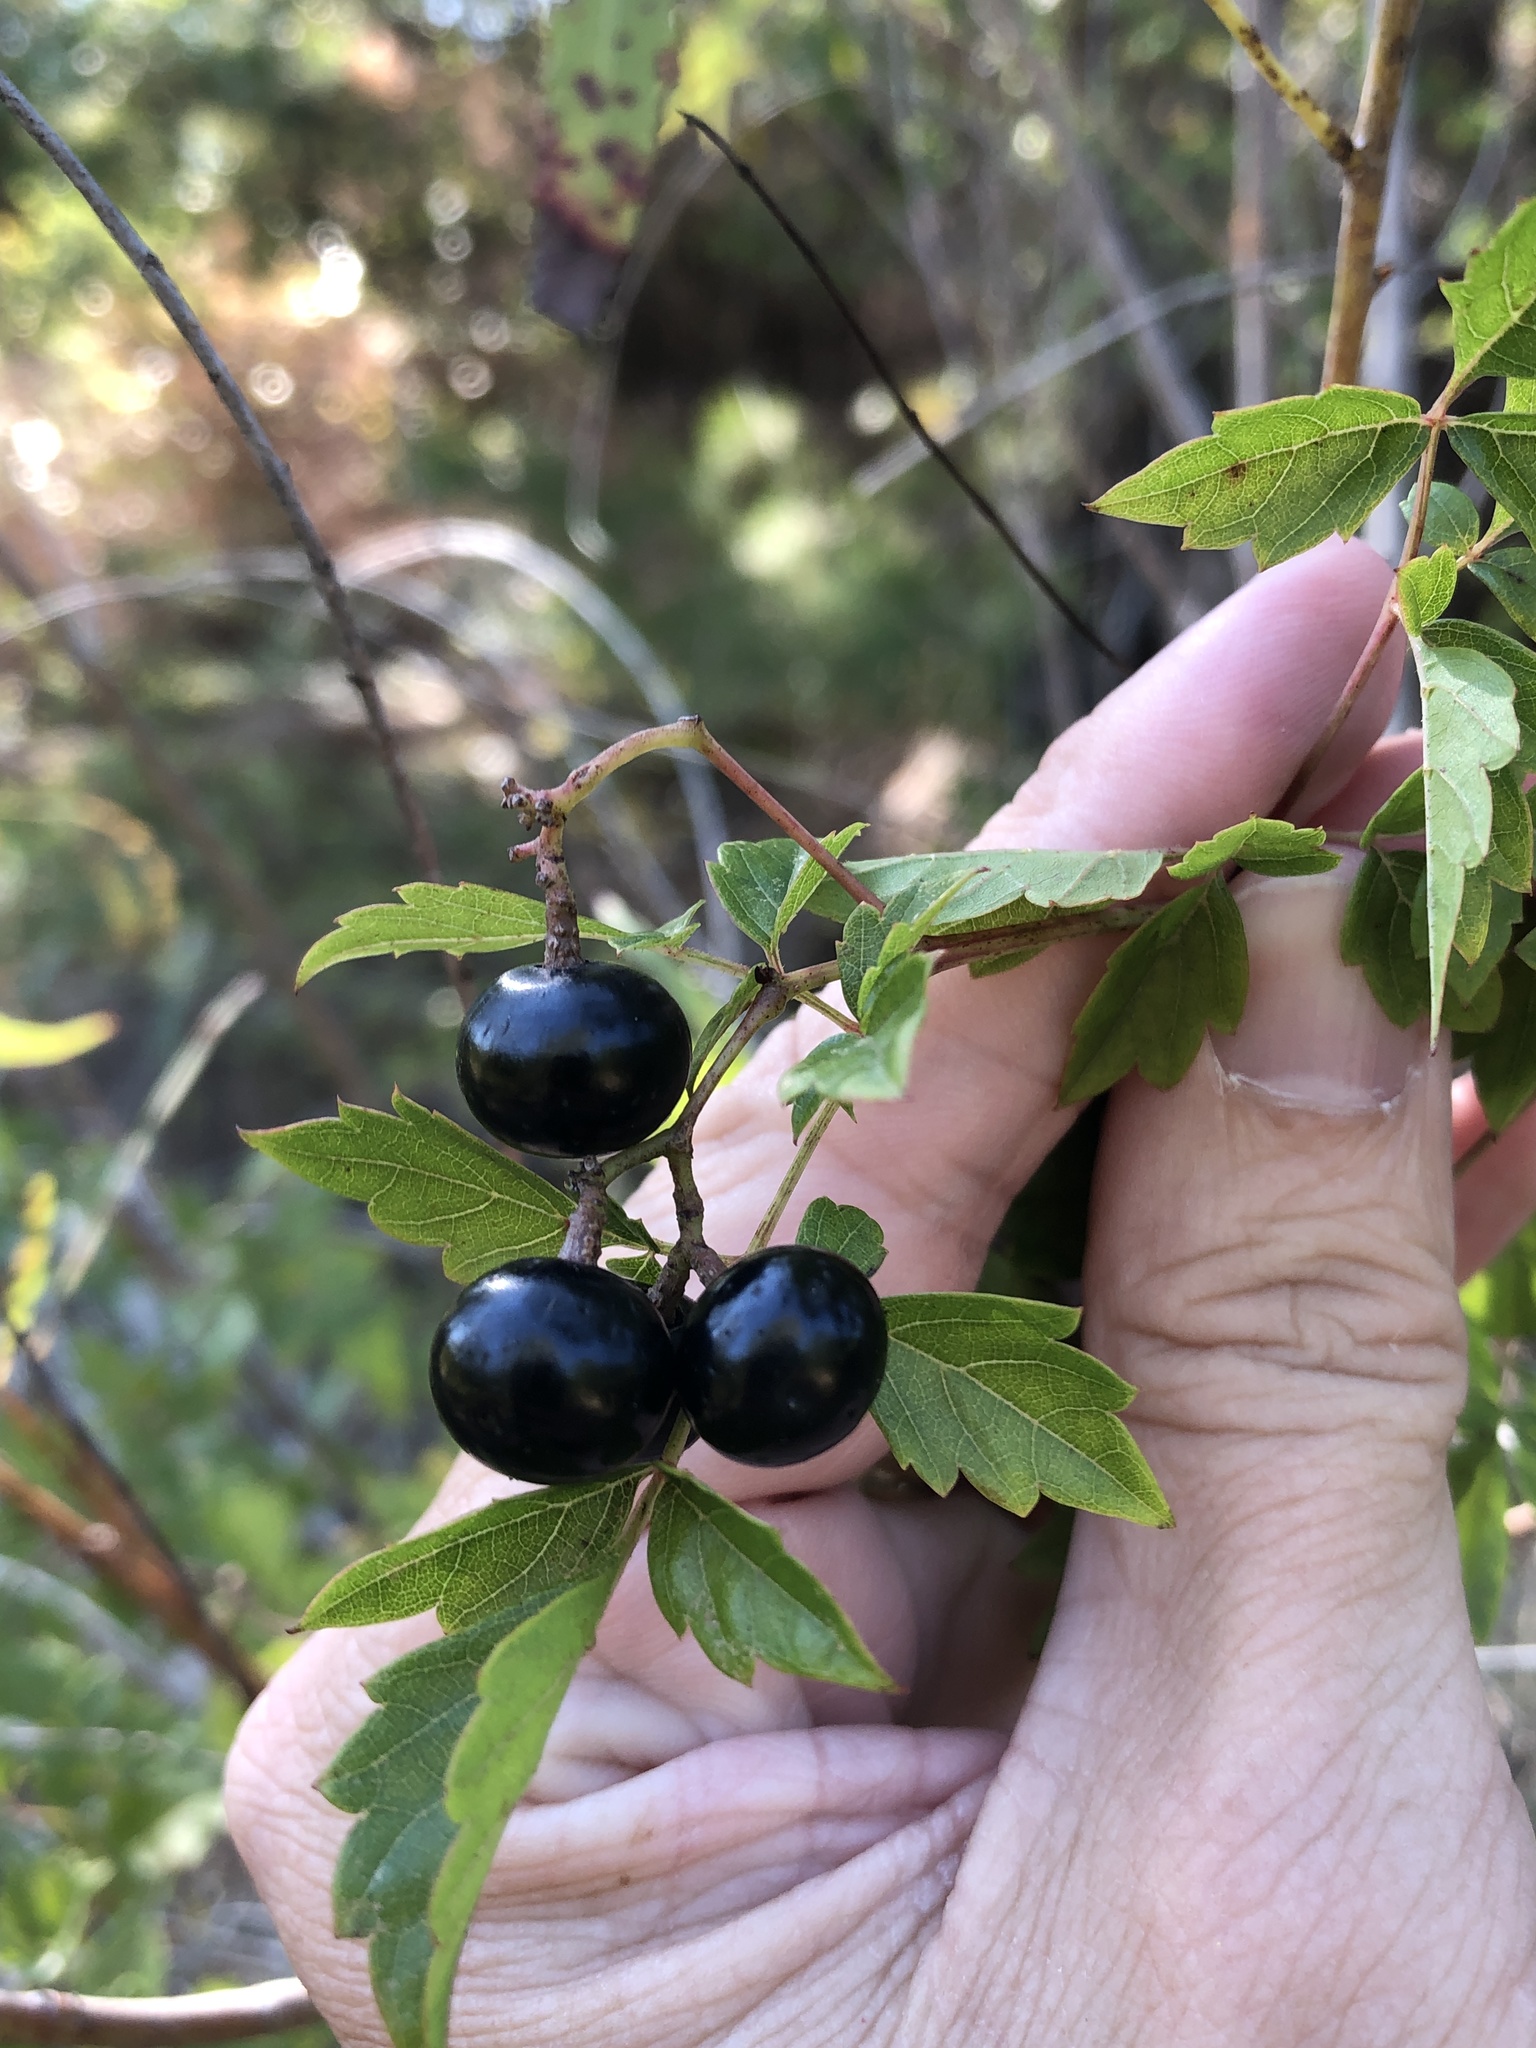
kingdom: Plantae
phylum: Tracheophyta
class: Magnoliopsida
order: Vitales
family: Vitaceae
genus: Nekemias
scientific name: Nekemias arborea
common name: Peppervine
